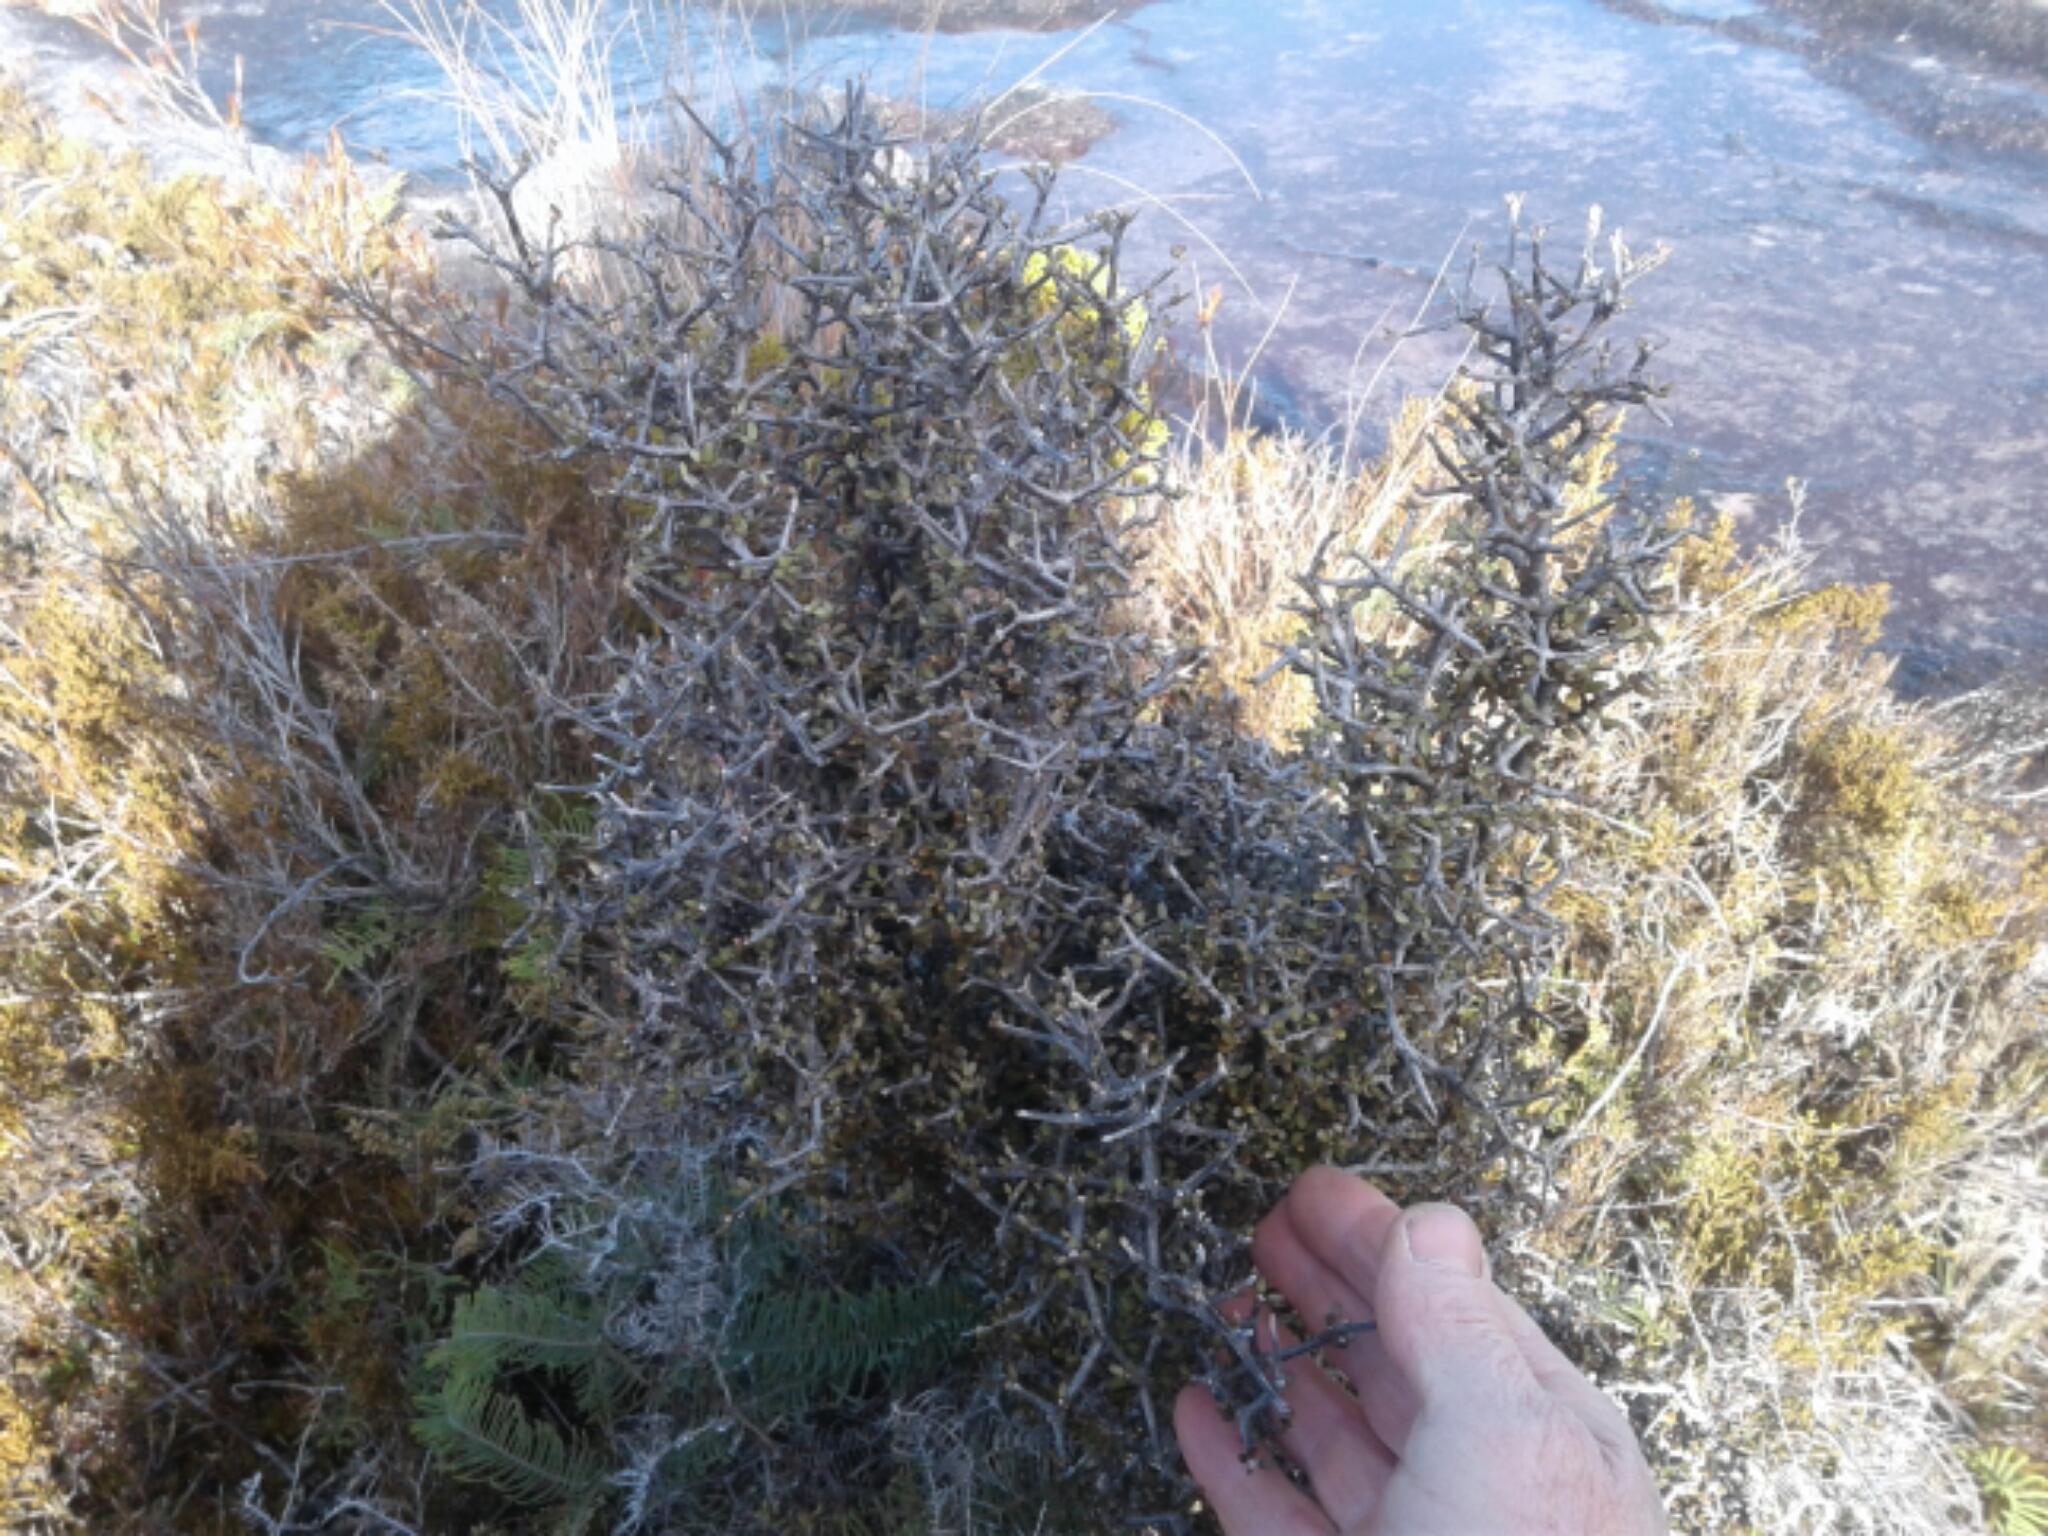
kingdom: Plantae
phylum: Tracheophyta
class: Magnoliopsida
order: Apiales
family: Pittosporaceae
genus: Pittosporum
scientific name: Pittosporum divaricatum
